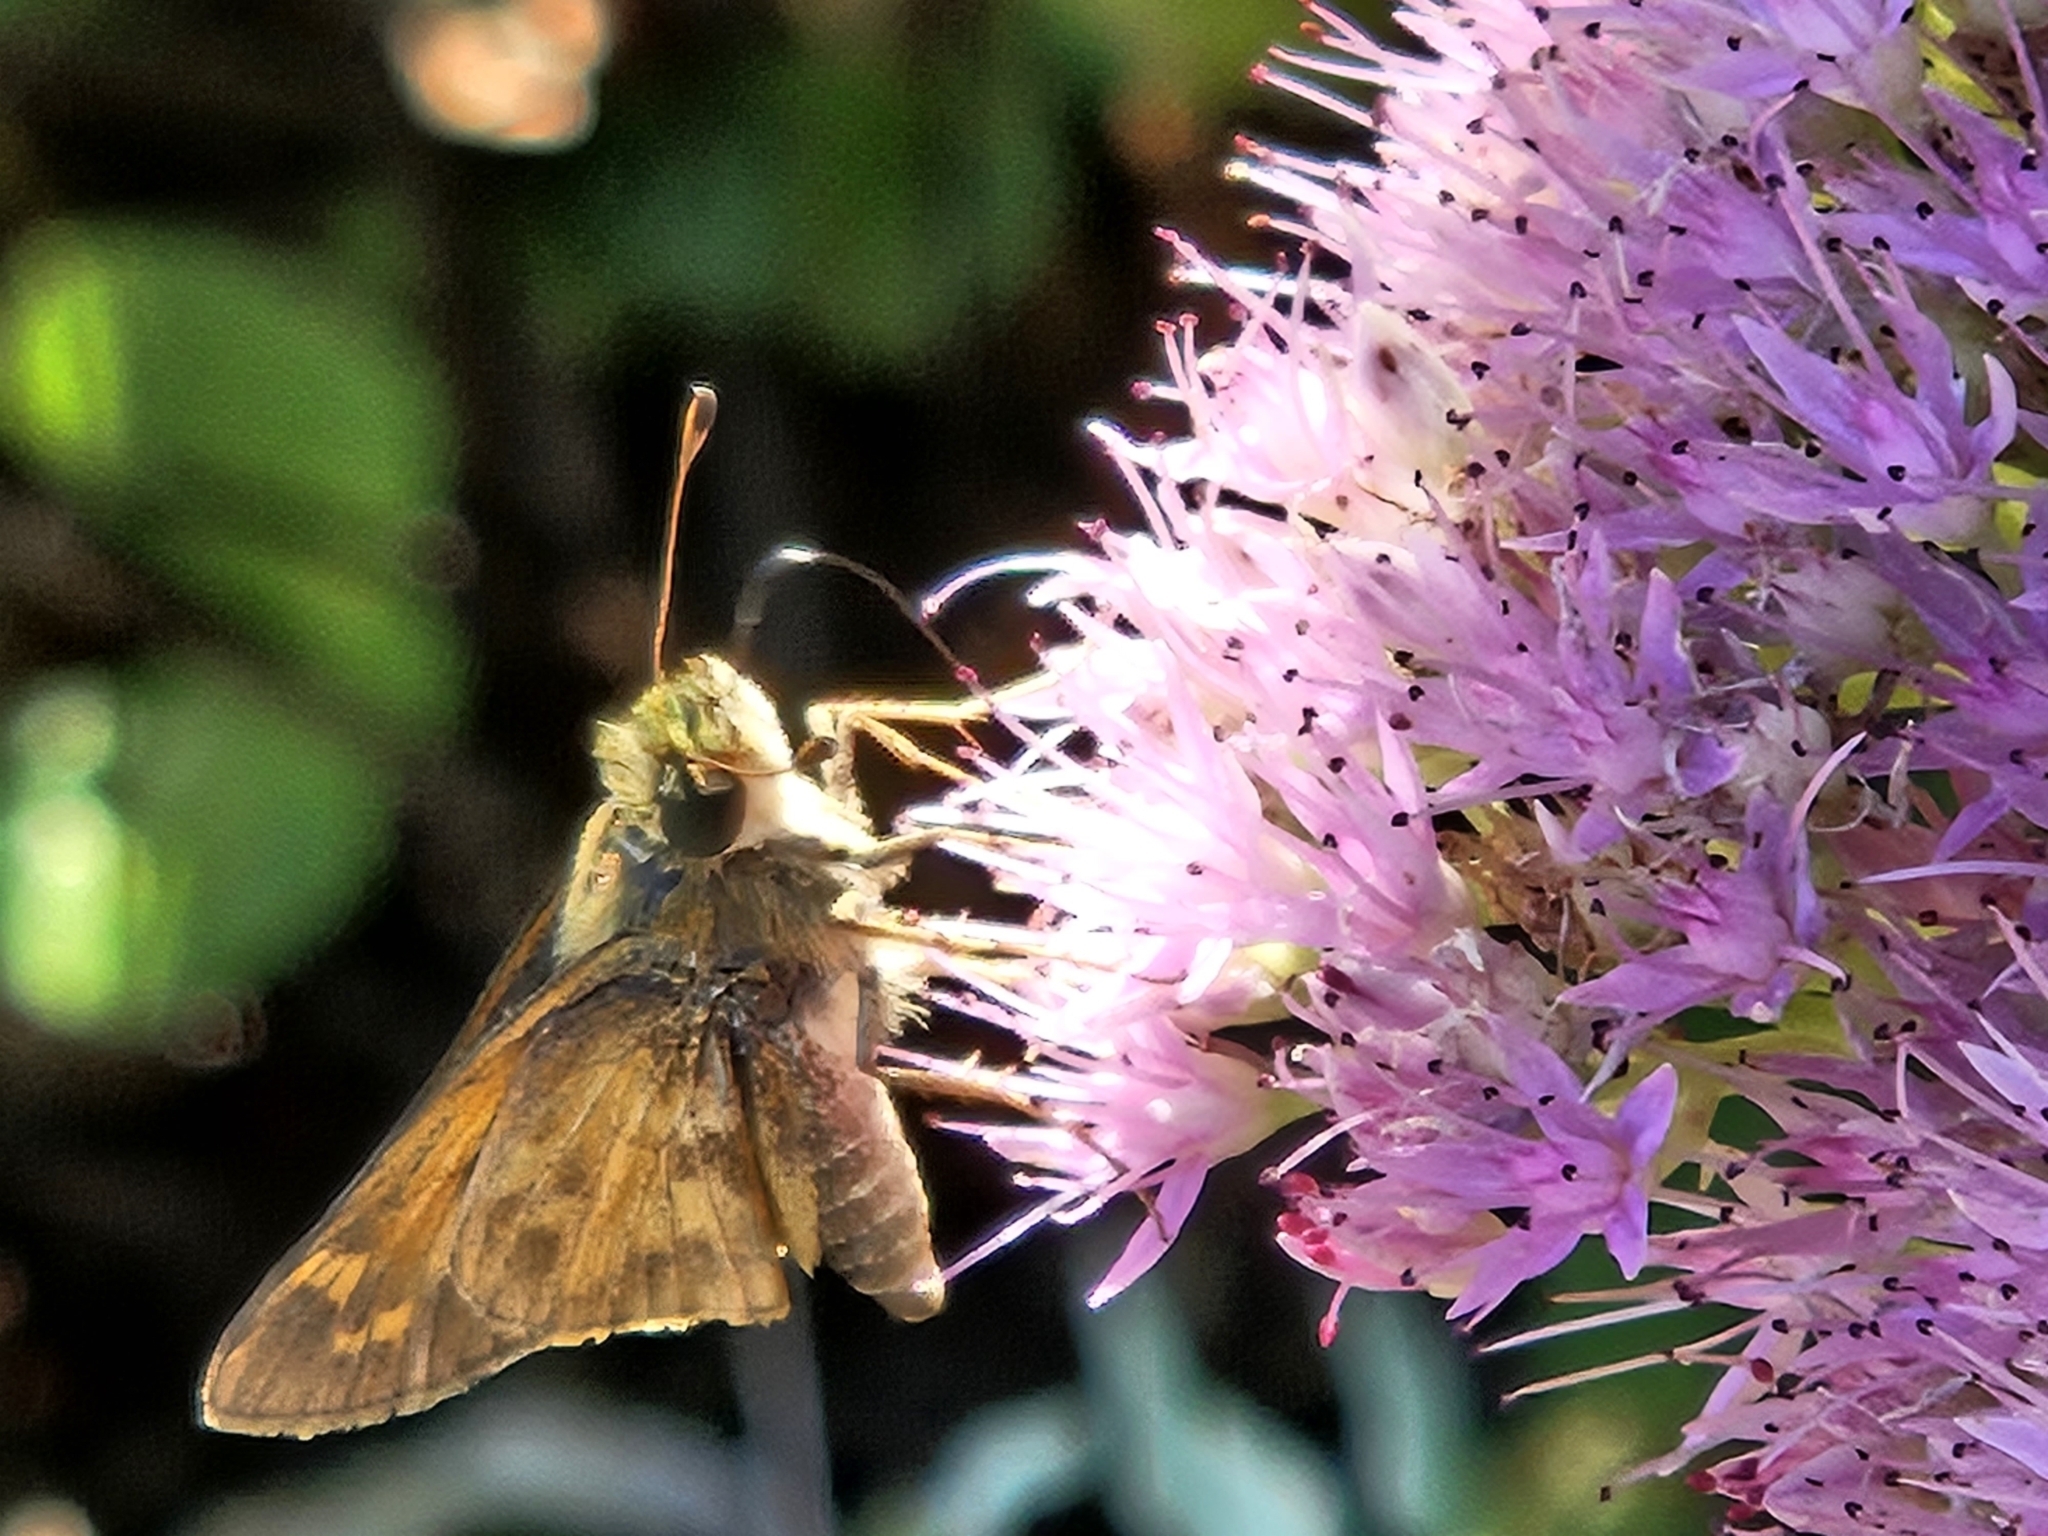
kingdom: Animalia
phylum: Arthropoda
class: Insecta
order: Lepidoptera
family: Hesperiidae
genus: Atalopedes
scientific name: Atalopedes
